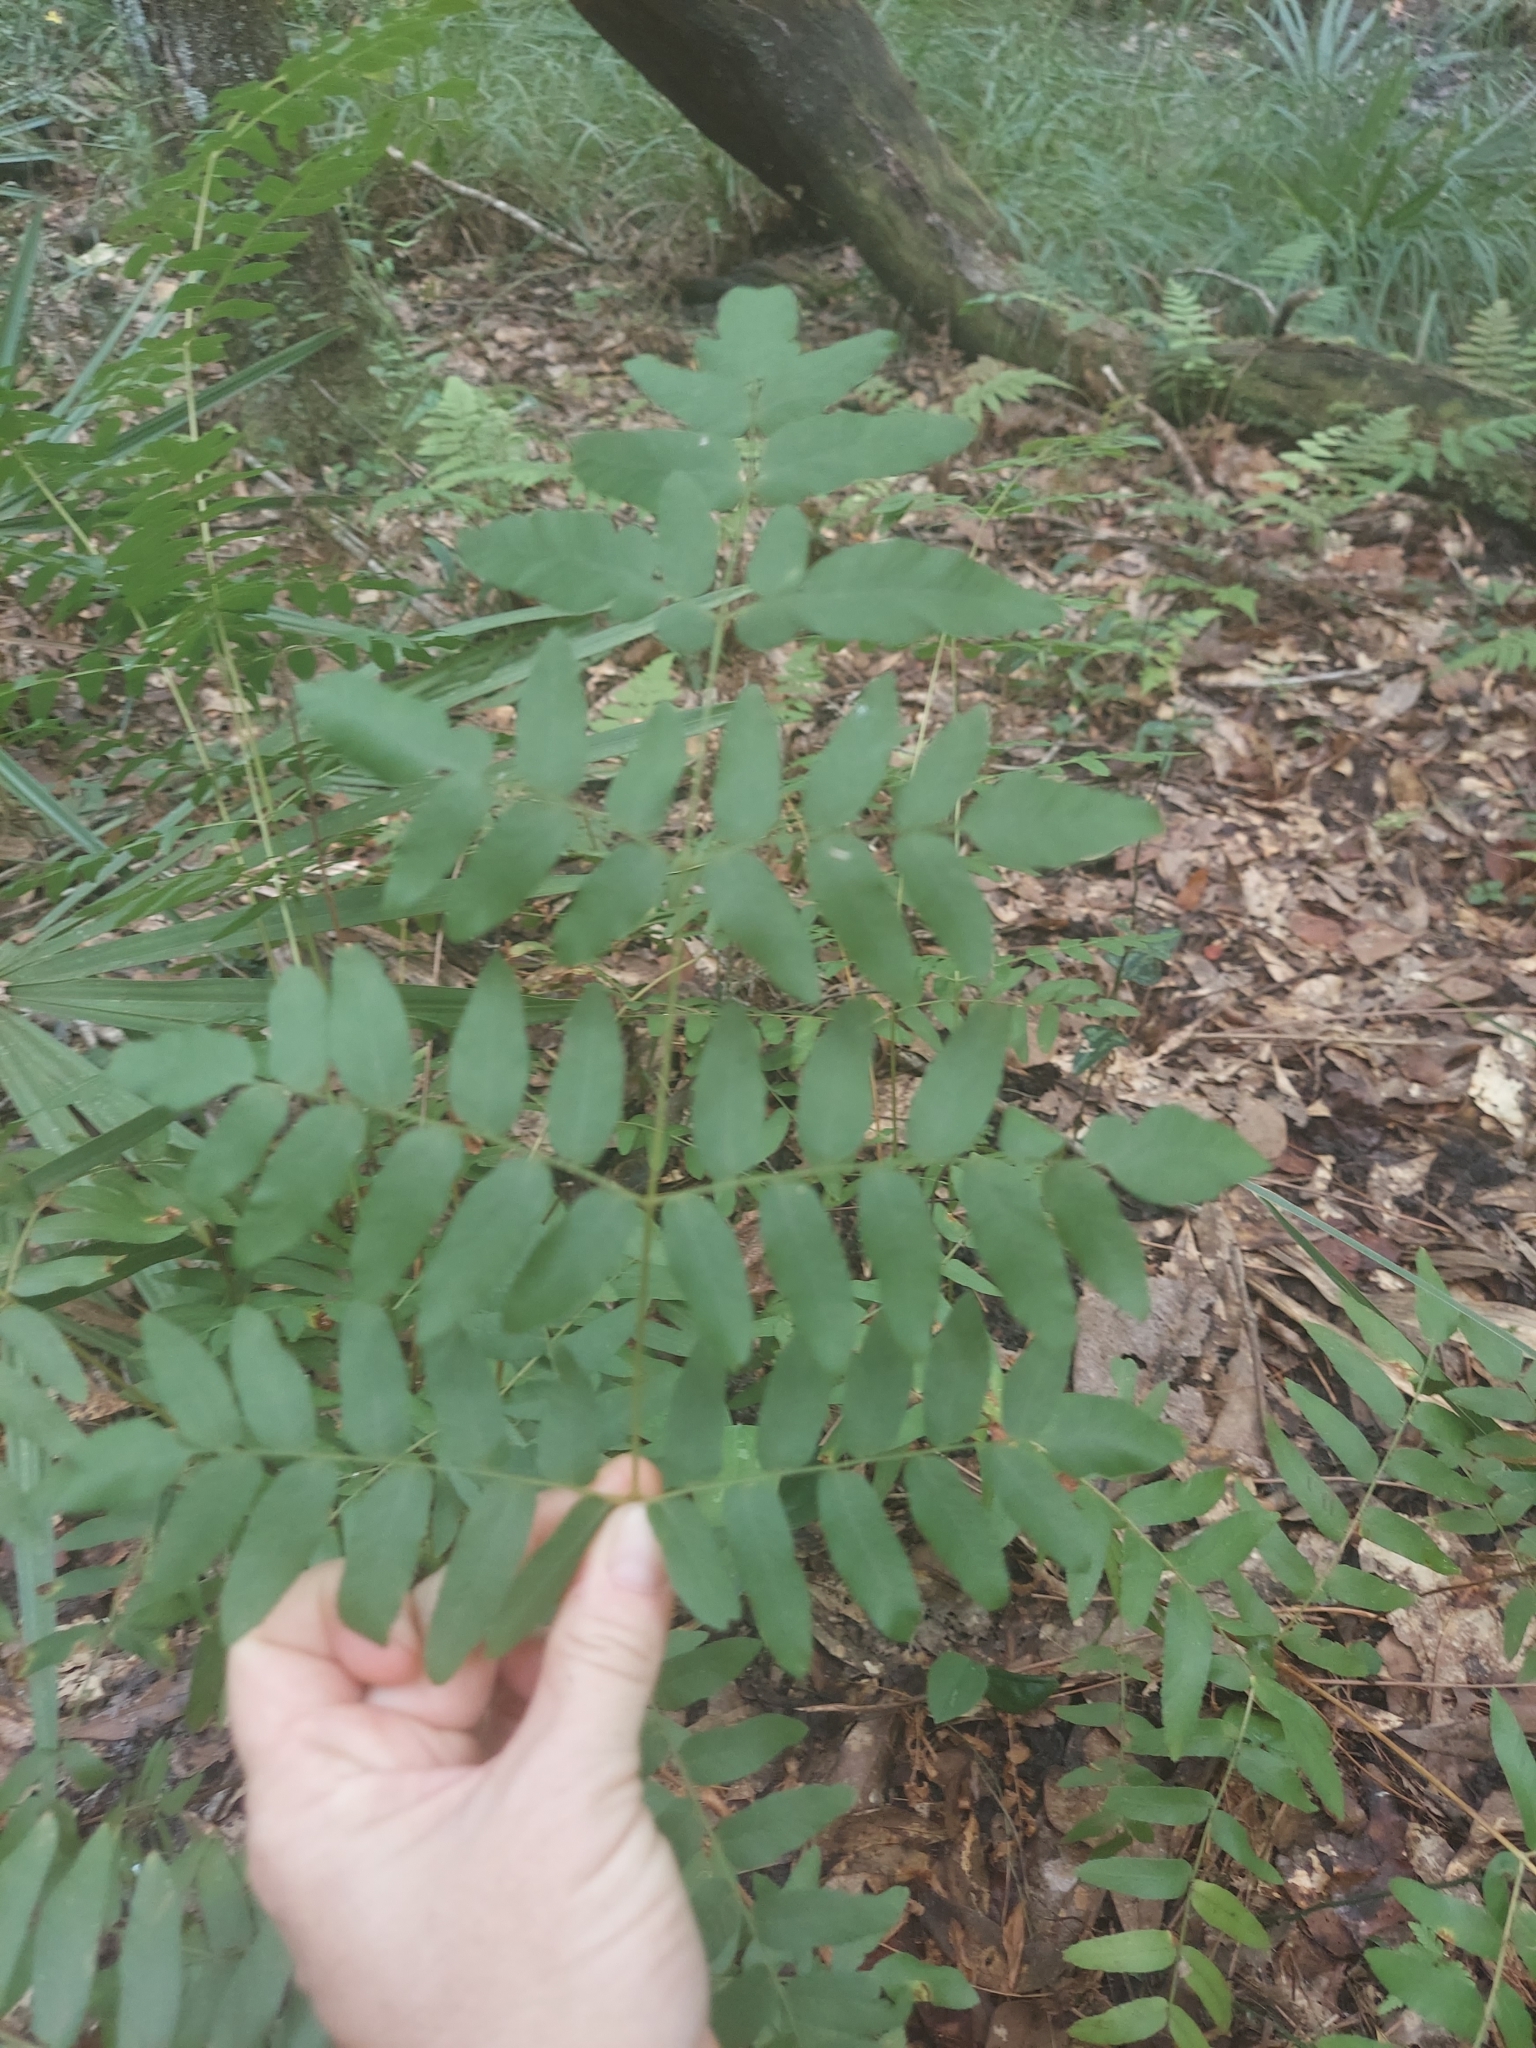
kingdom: Plantae
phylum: Tracheophyta
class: Polypodiopsida
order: Osmundales
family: Osmundaceae
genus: Osmunda
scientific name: Osmunda spectabilis
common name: American royal fern
